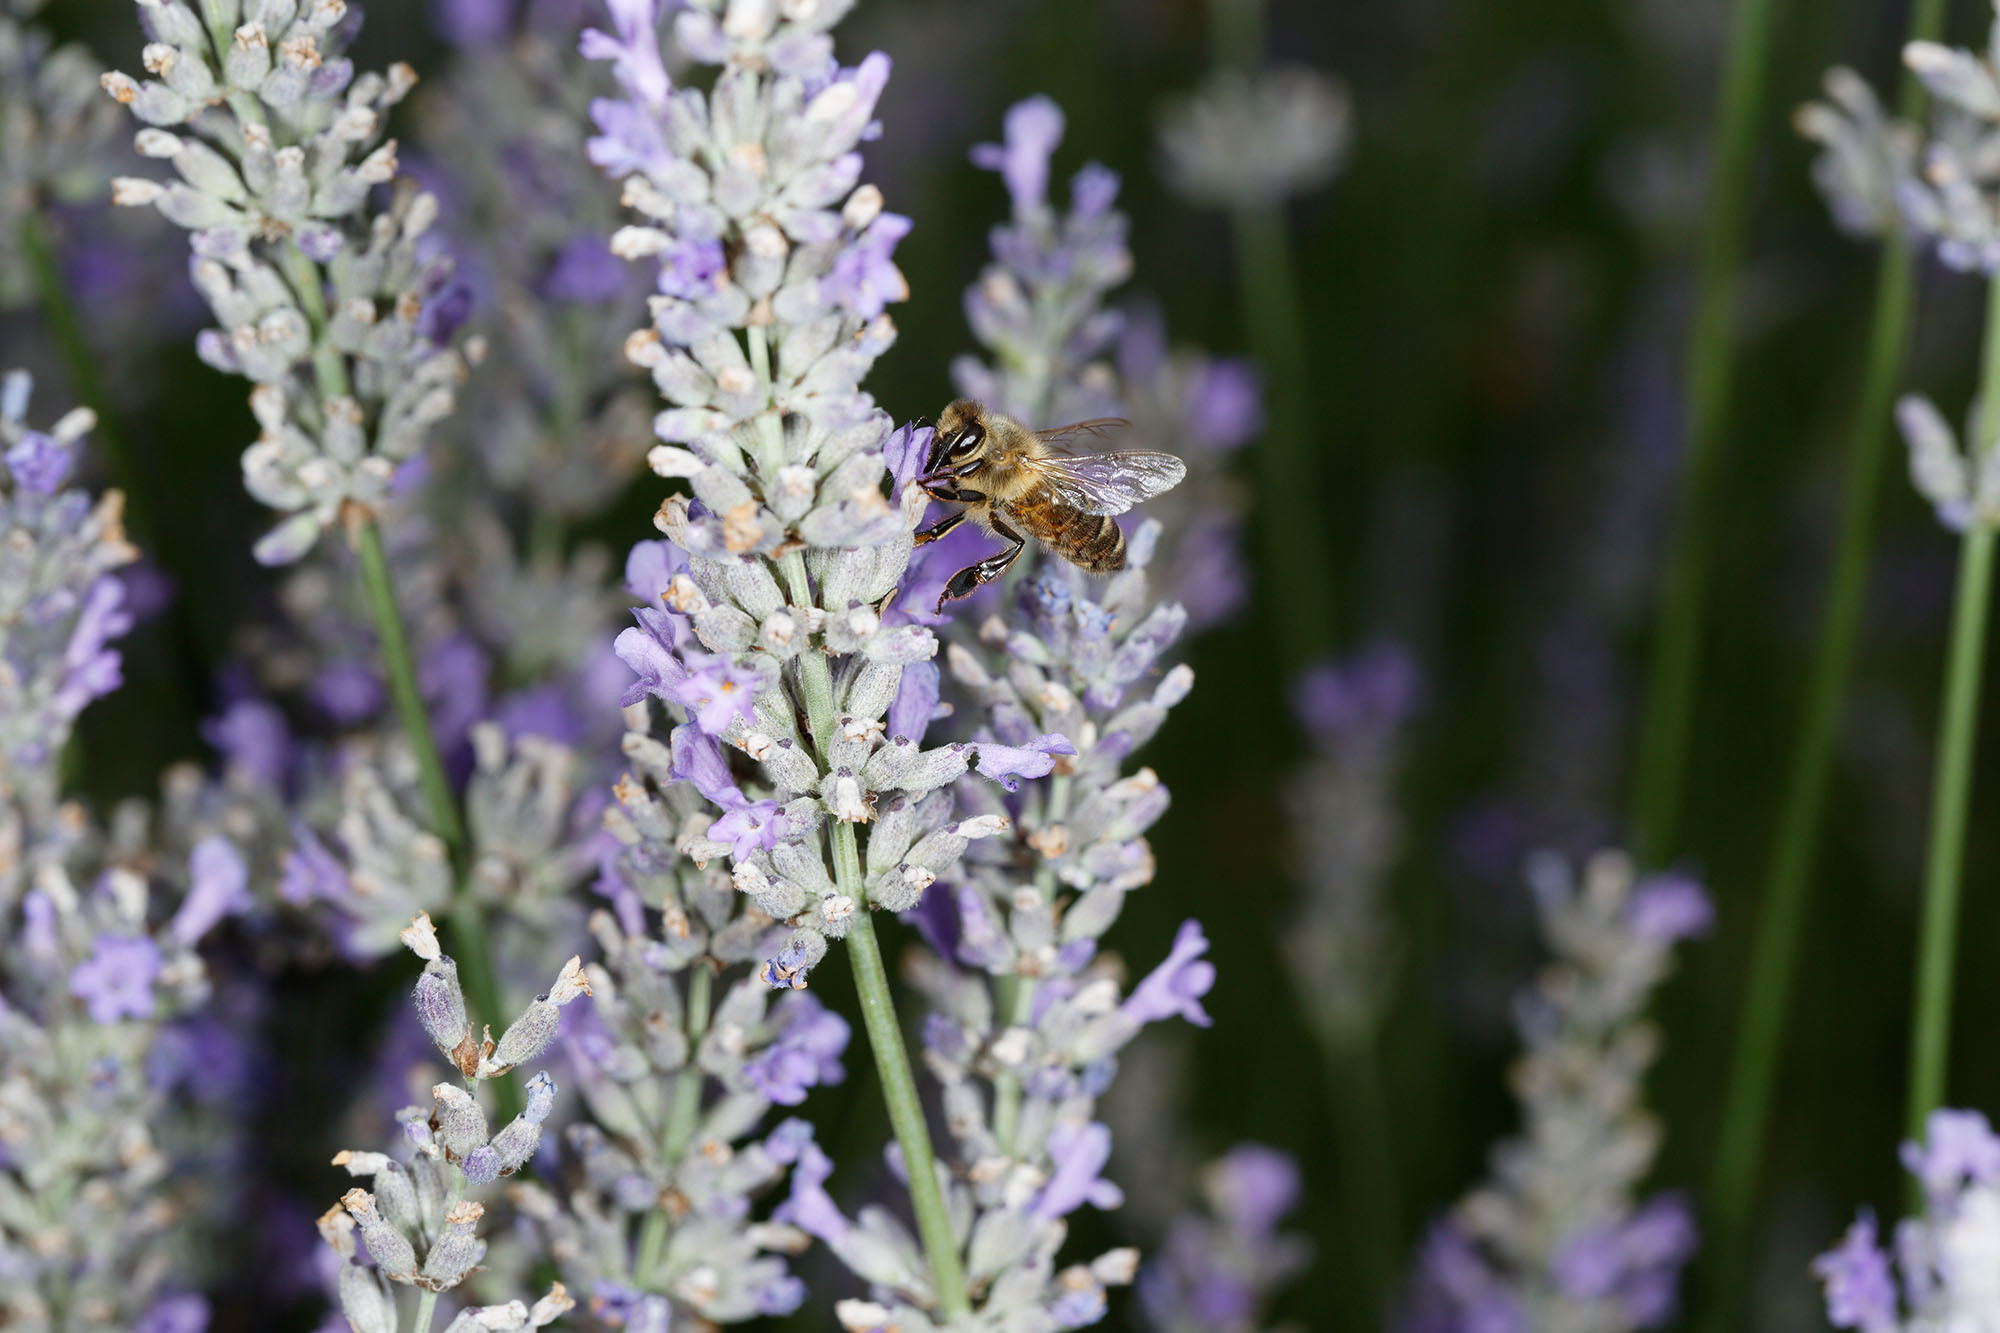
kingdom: Animalia
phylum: Arthropoda
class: Insecta
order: Hymenoptera
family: Apidae
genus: Apis
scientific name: Apis mellifera
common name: Honey bee
